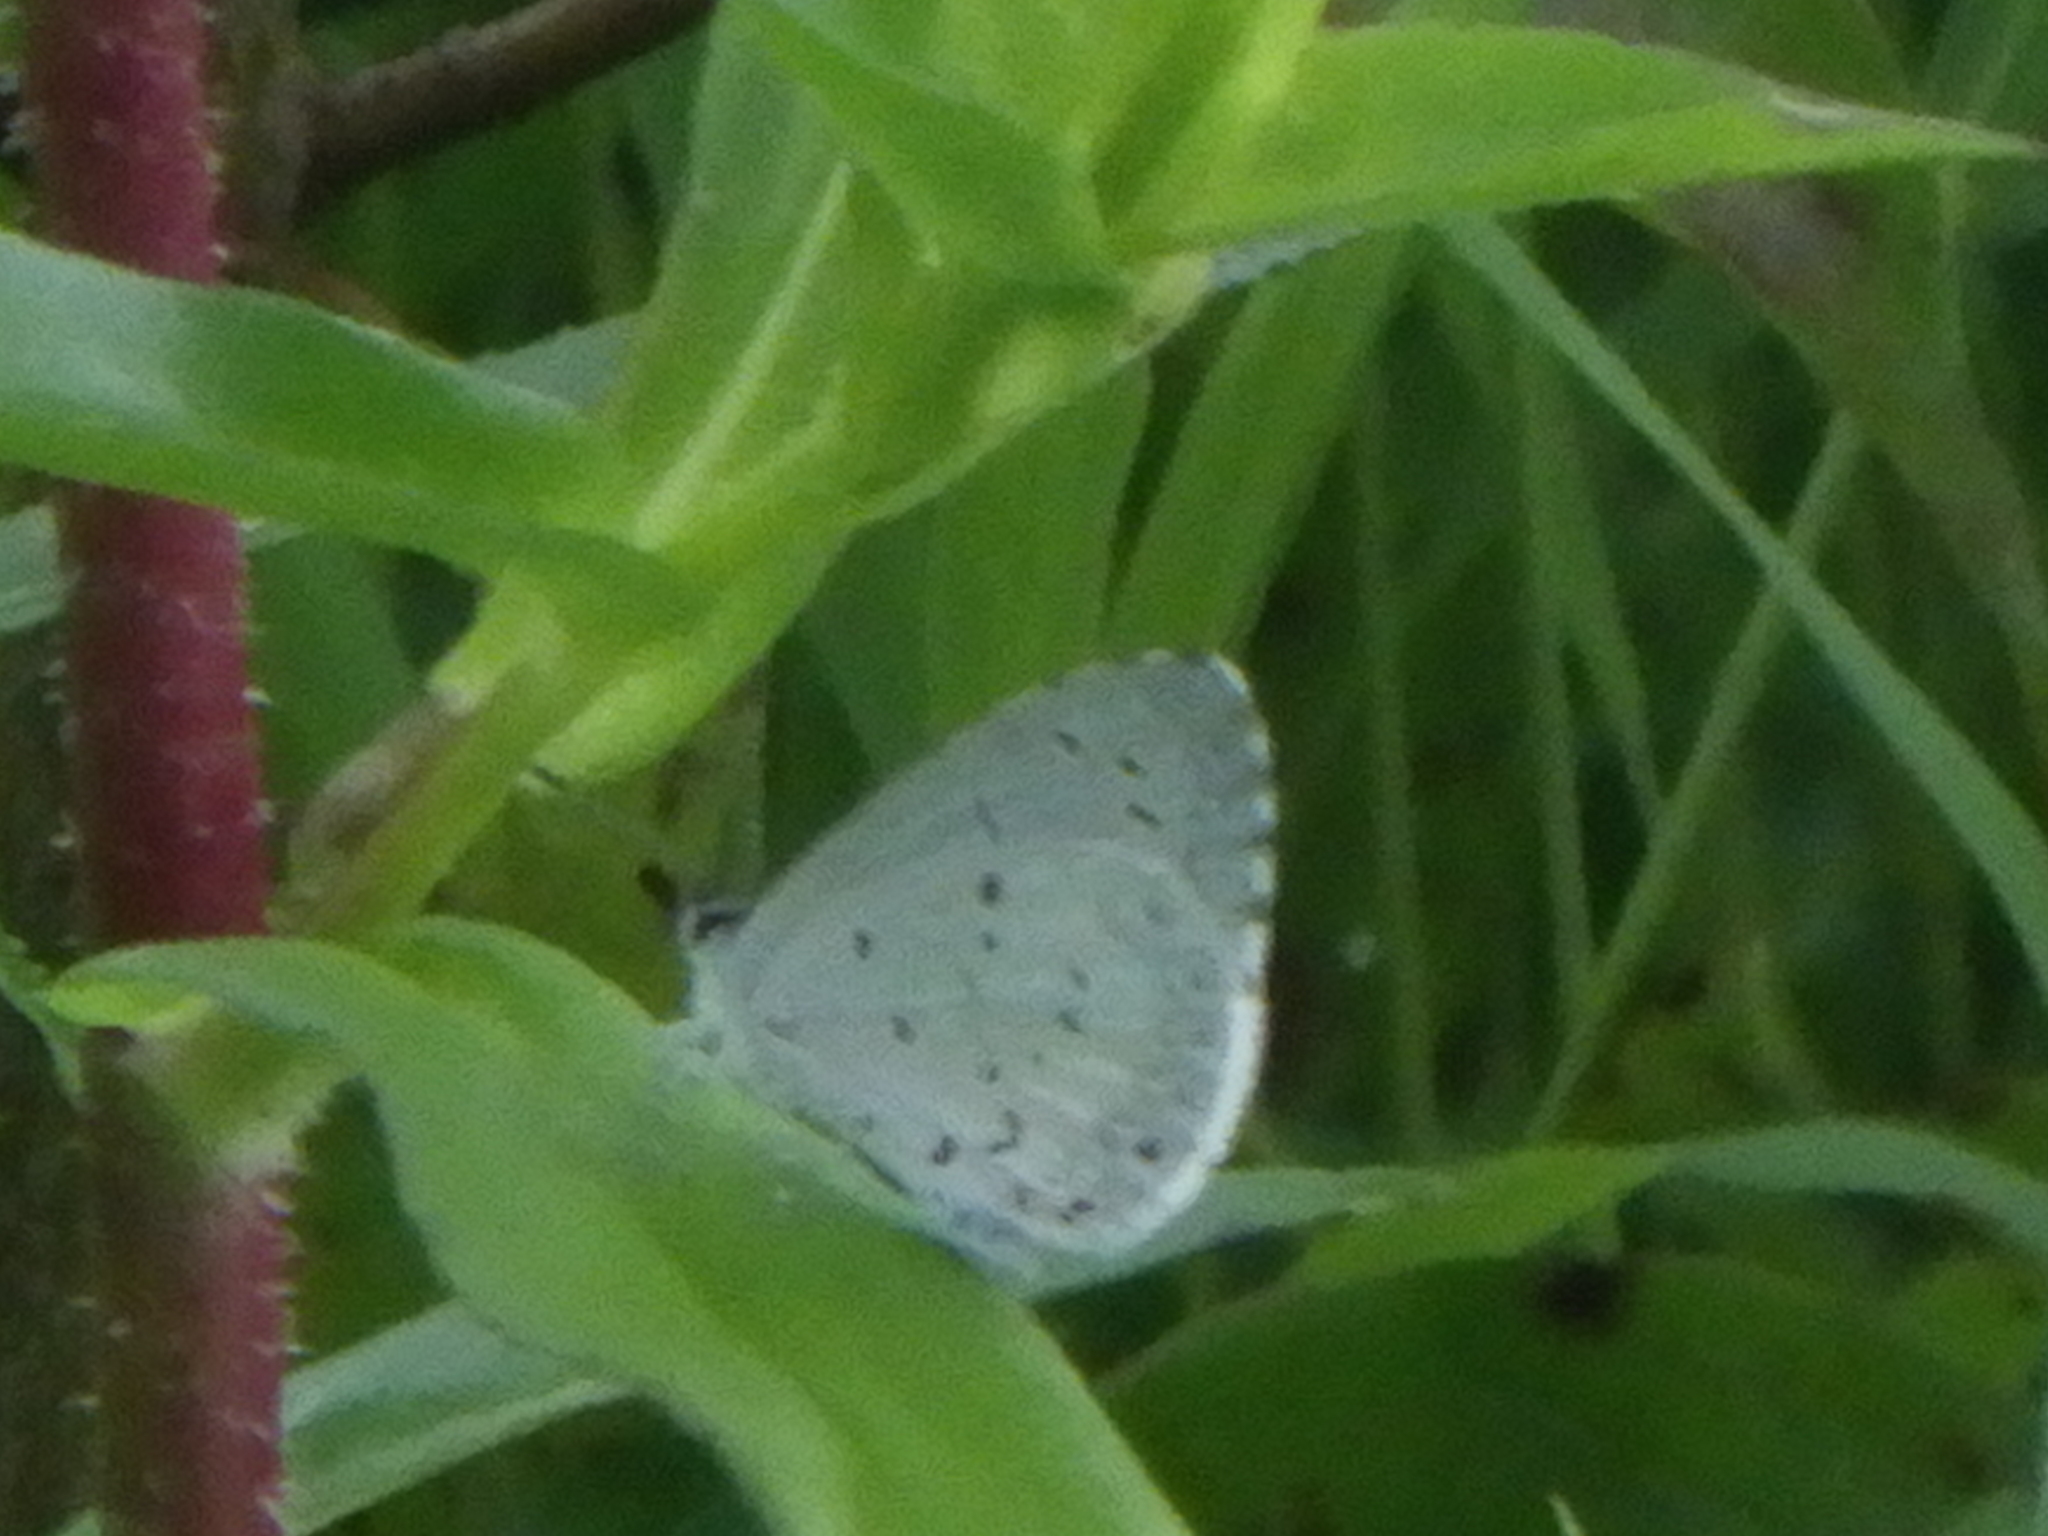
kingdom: Animalia
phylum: Arthropoda
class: Insecta
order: Lepidoptera
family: Lycaenidae
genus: Cyaniris
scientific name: Cyaniris neglecta
